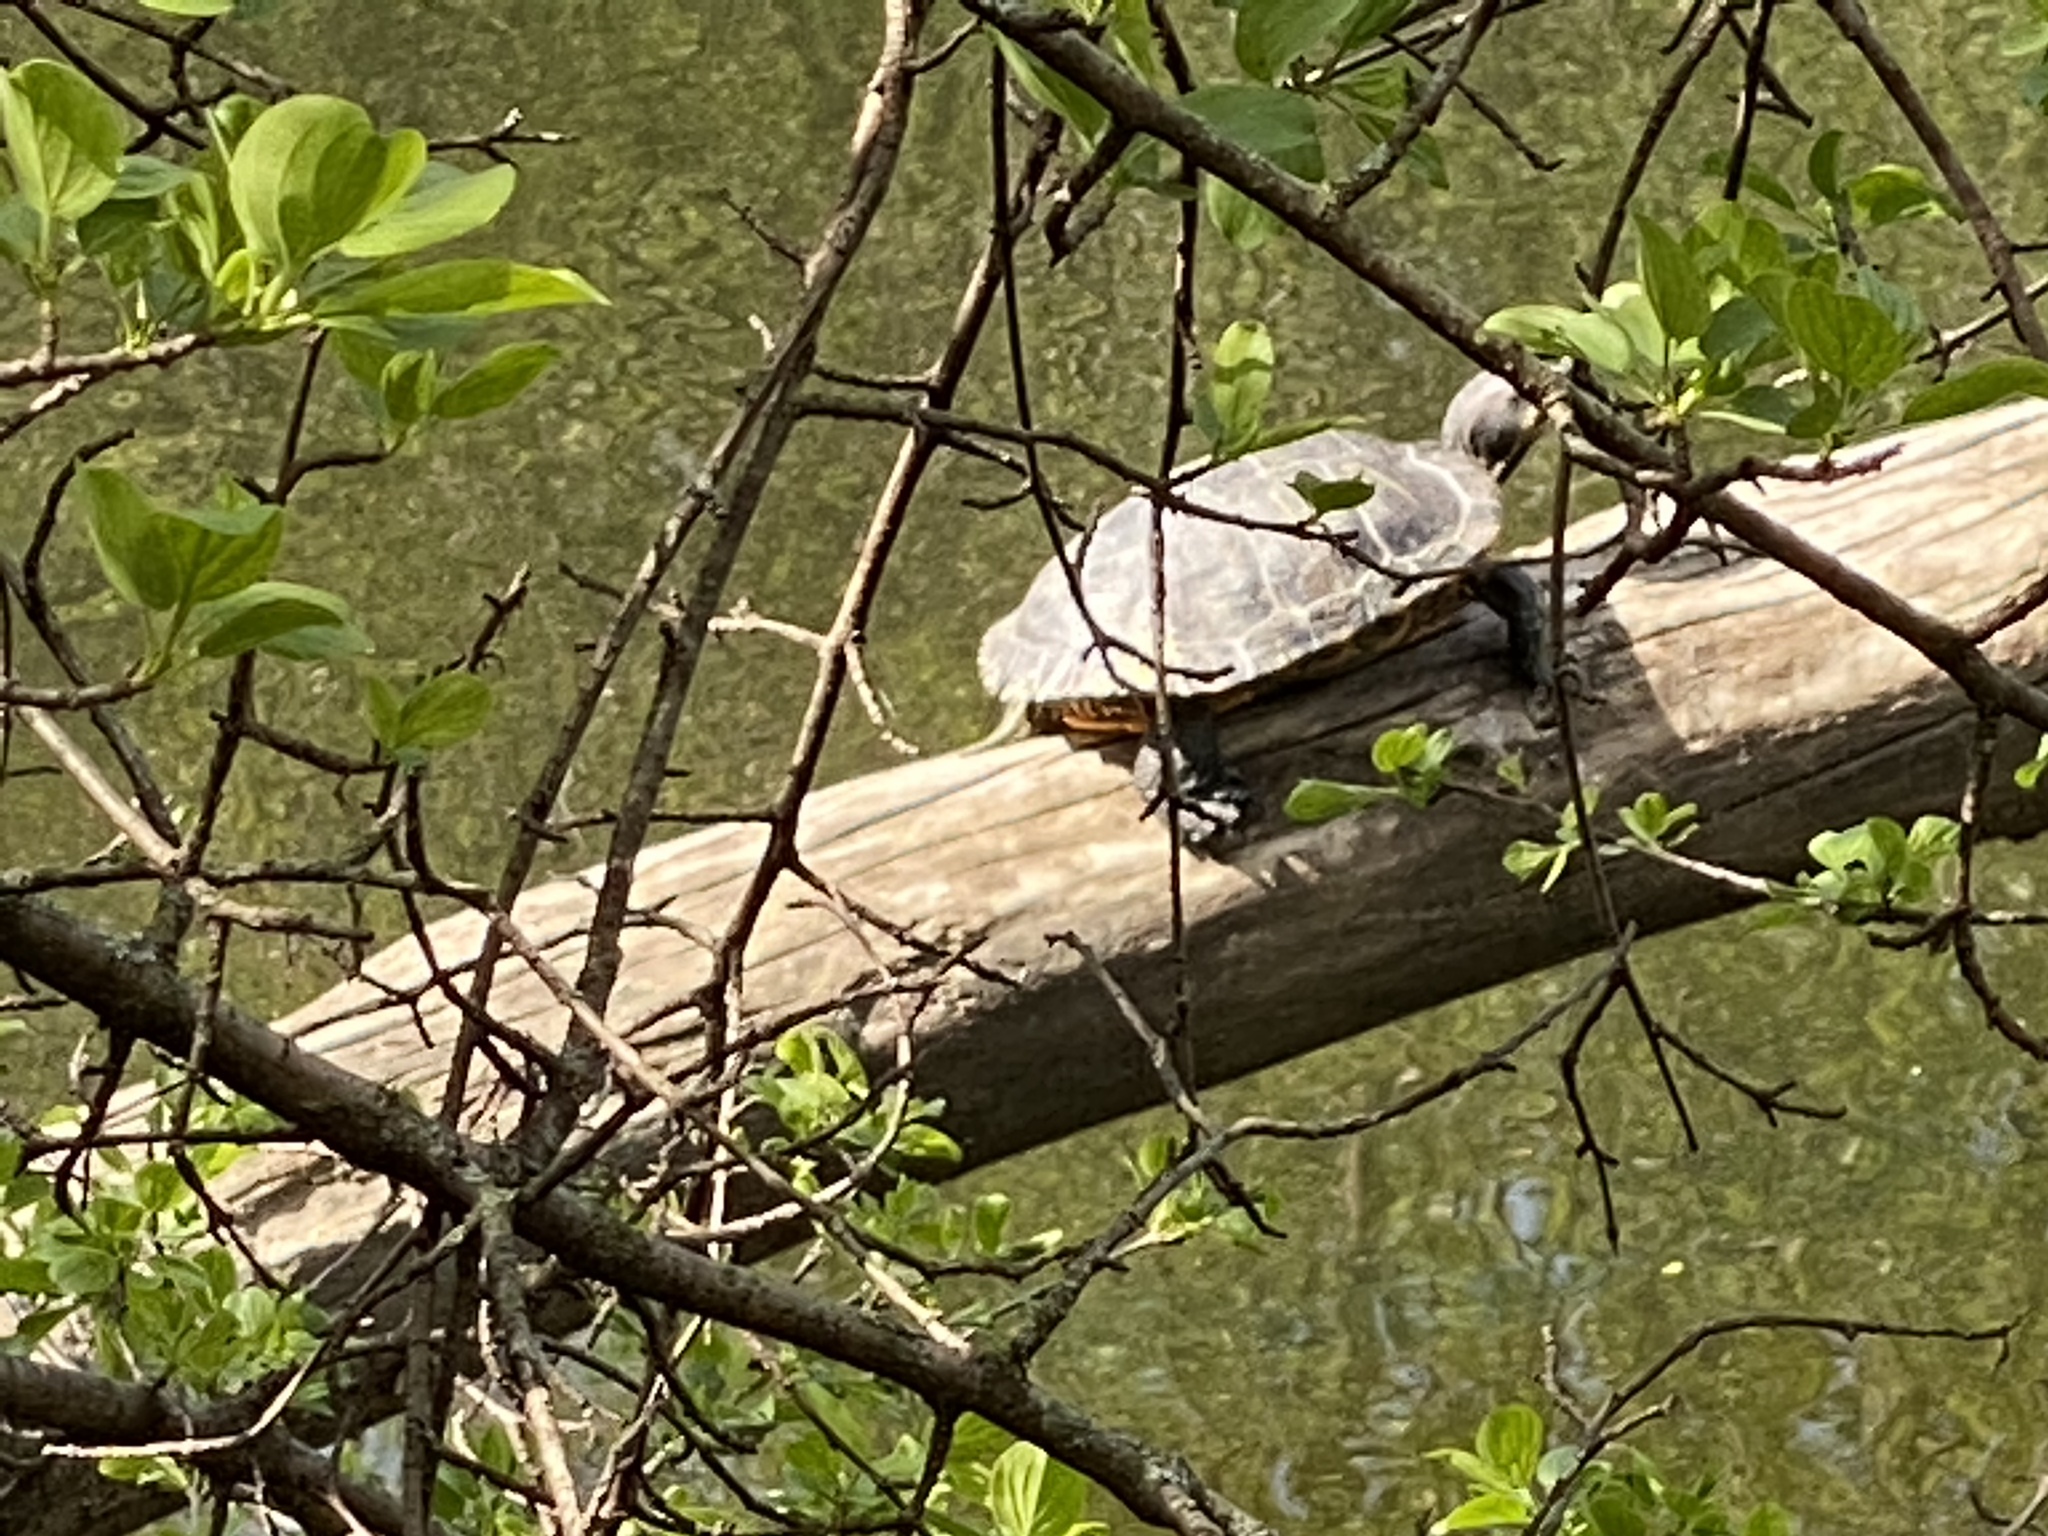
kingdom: Animalia
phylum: Chordata
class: Testudines
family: Emydidae
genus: Trachemys
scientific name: Trachemys scripta
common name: Slider
